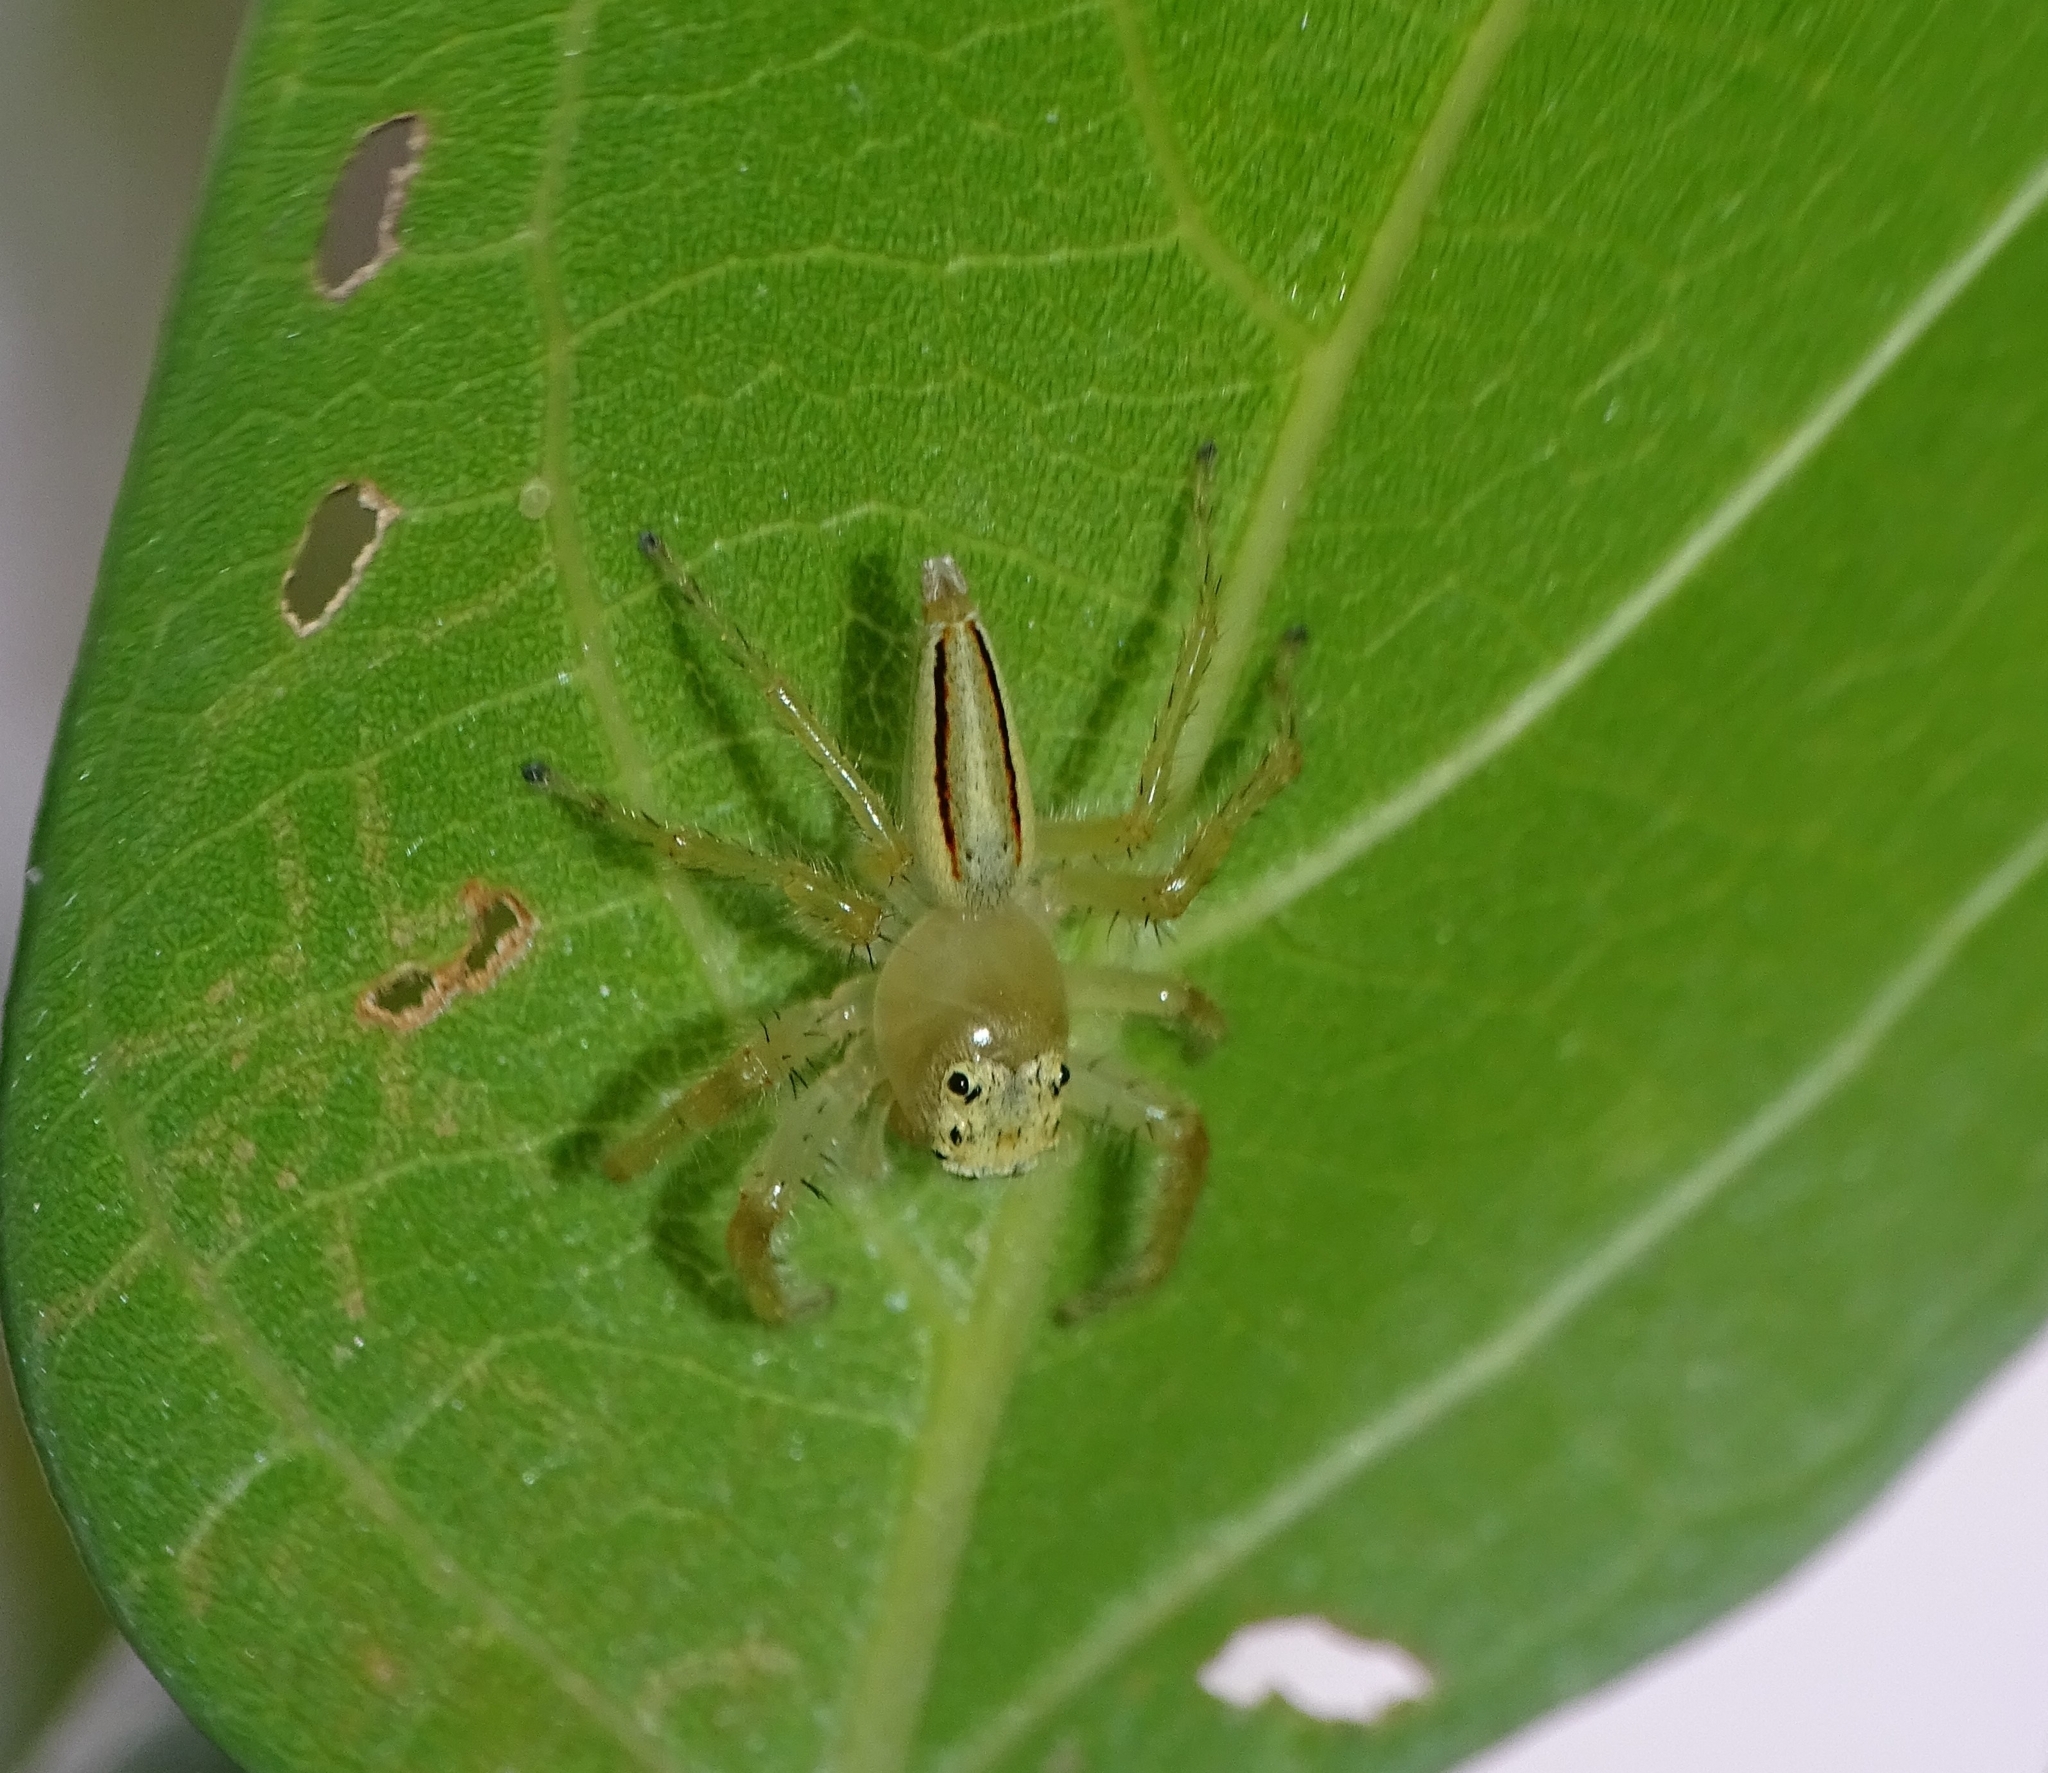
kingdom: Animalia
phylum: Arthropoda
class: Arachnida
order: Araneae
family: Salticidae
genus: Telamonia
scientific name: Telamonia dimidiata
